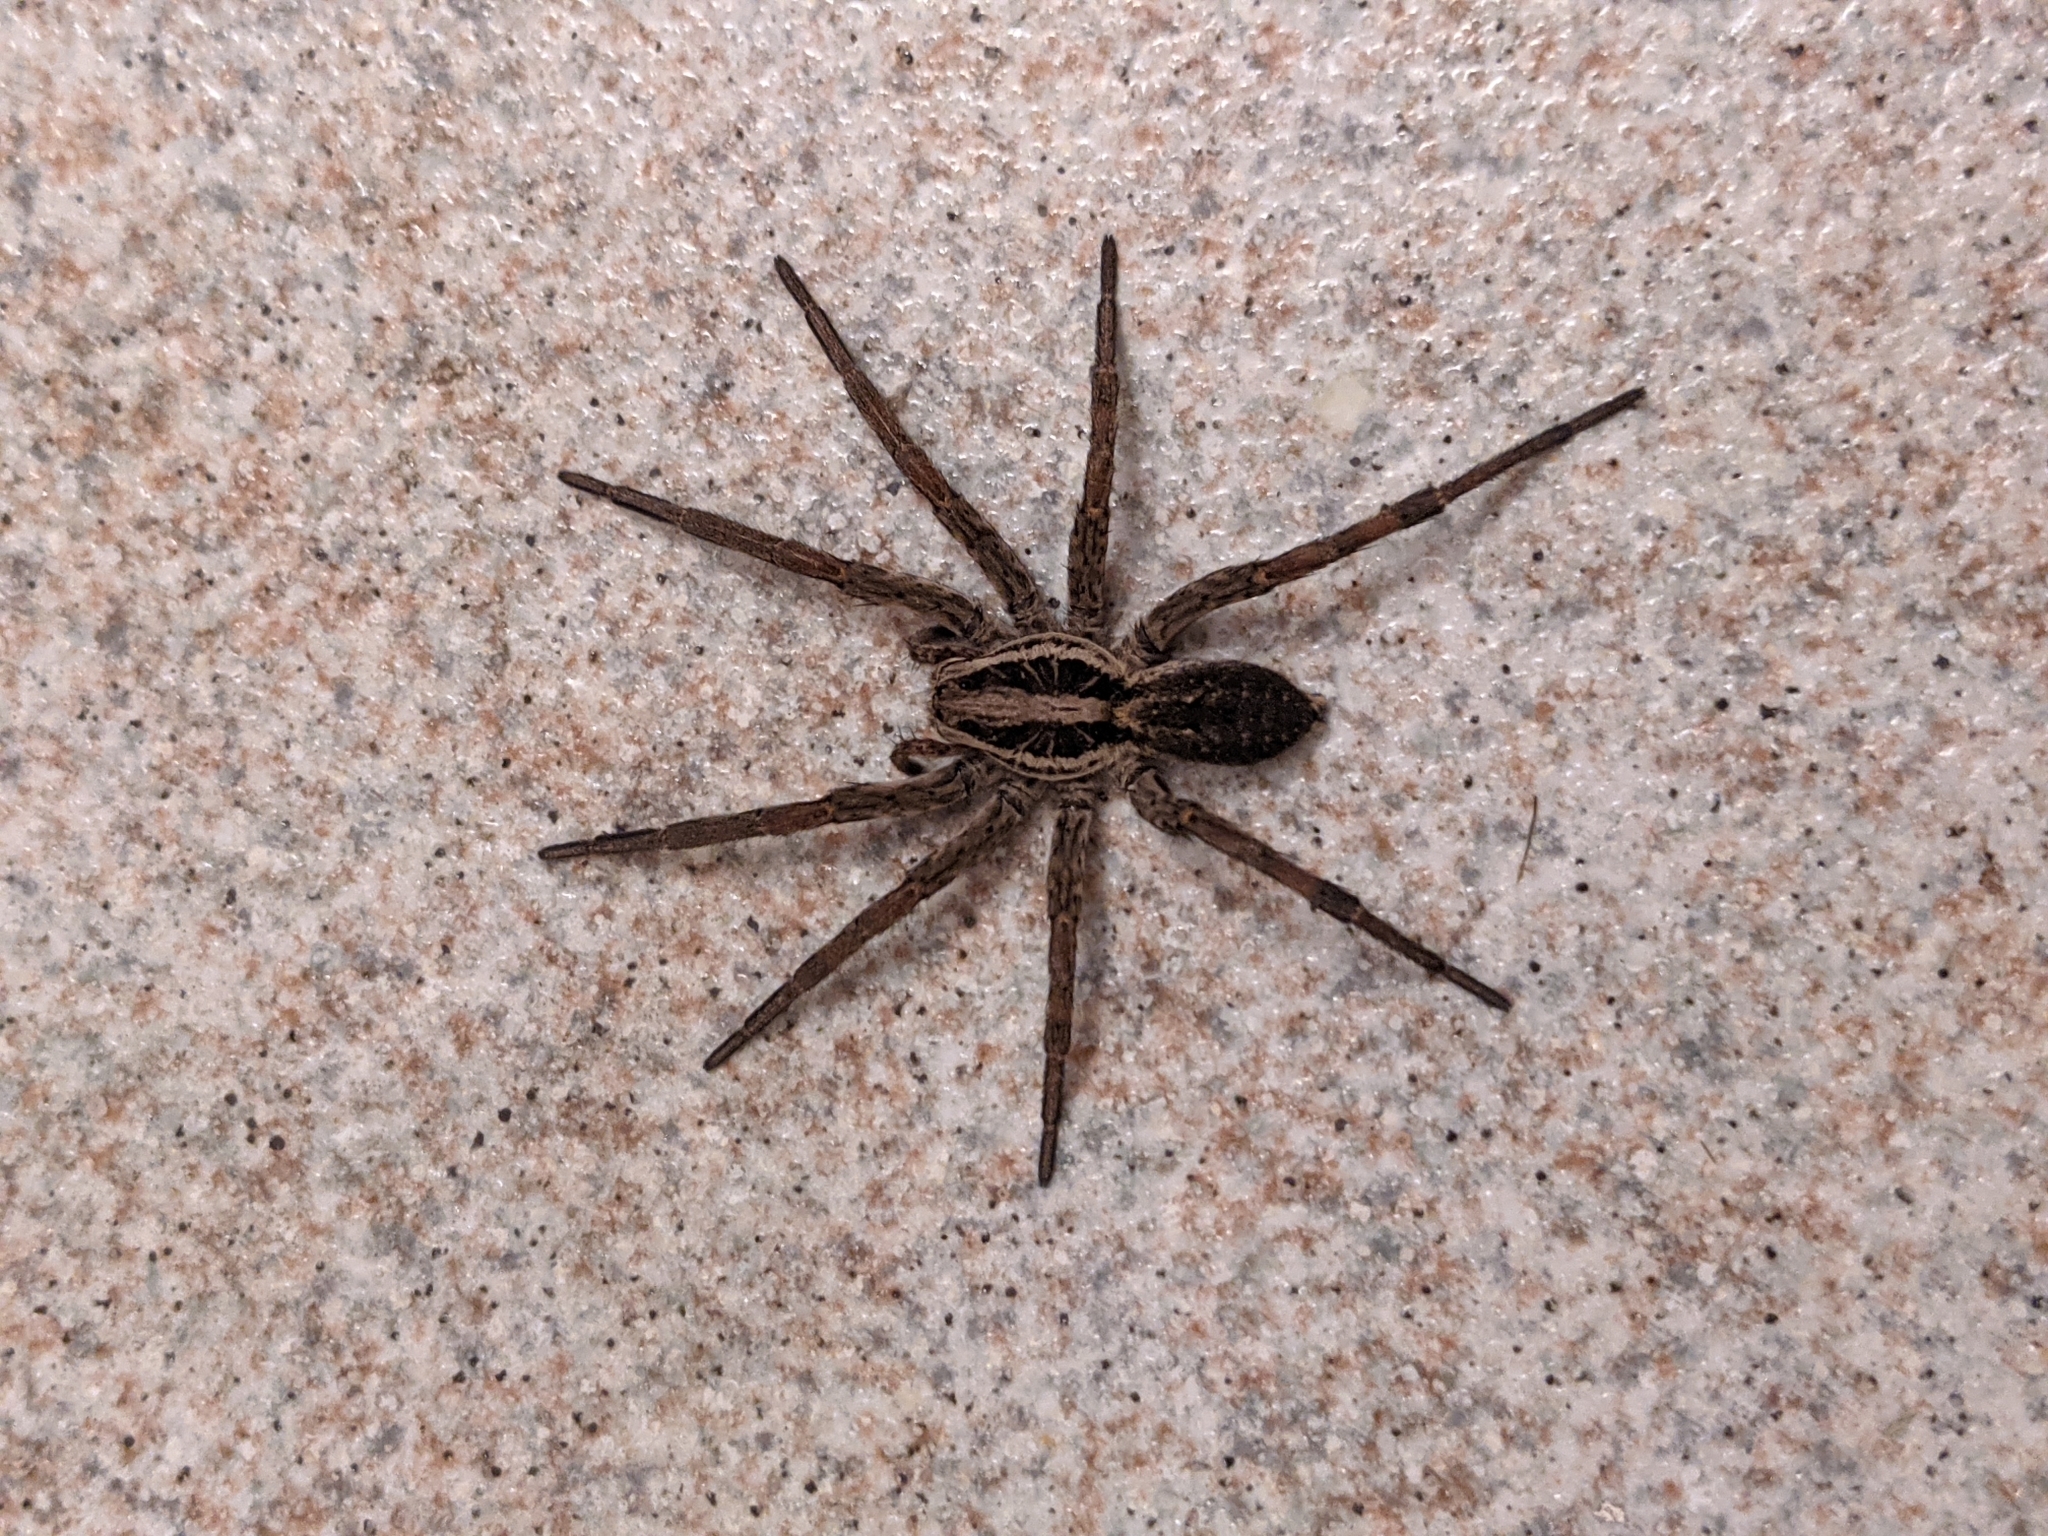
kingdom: Animalia
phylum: Arthropoda
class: Arachnida
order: Araneae
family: Lycosidae
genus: Hogna
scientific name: Hogna radiata
